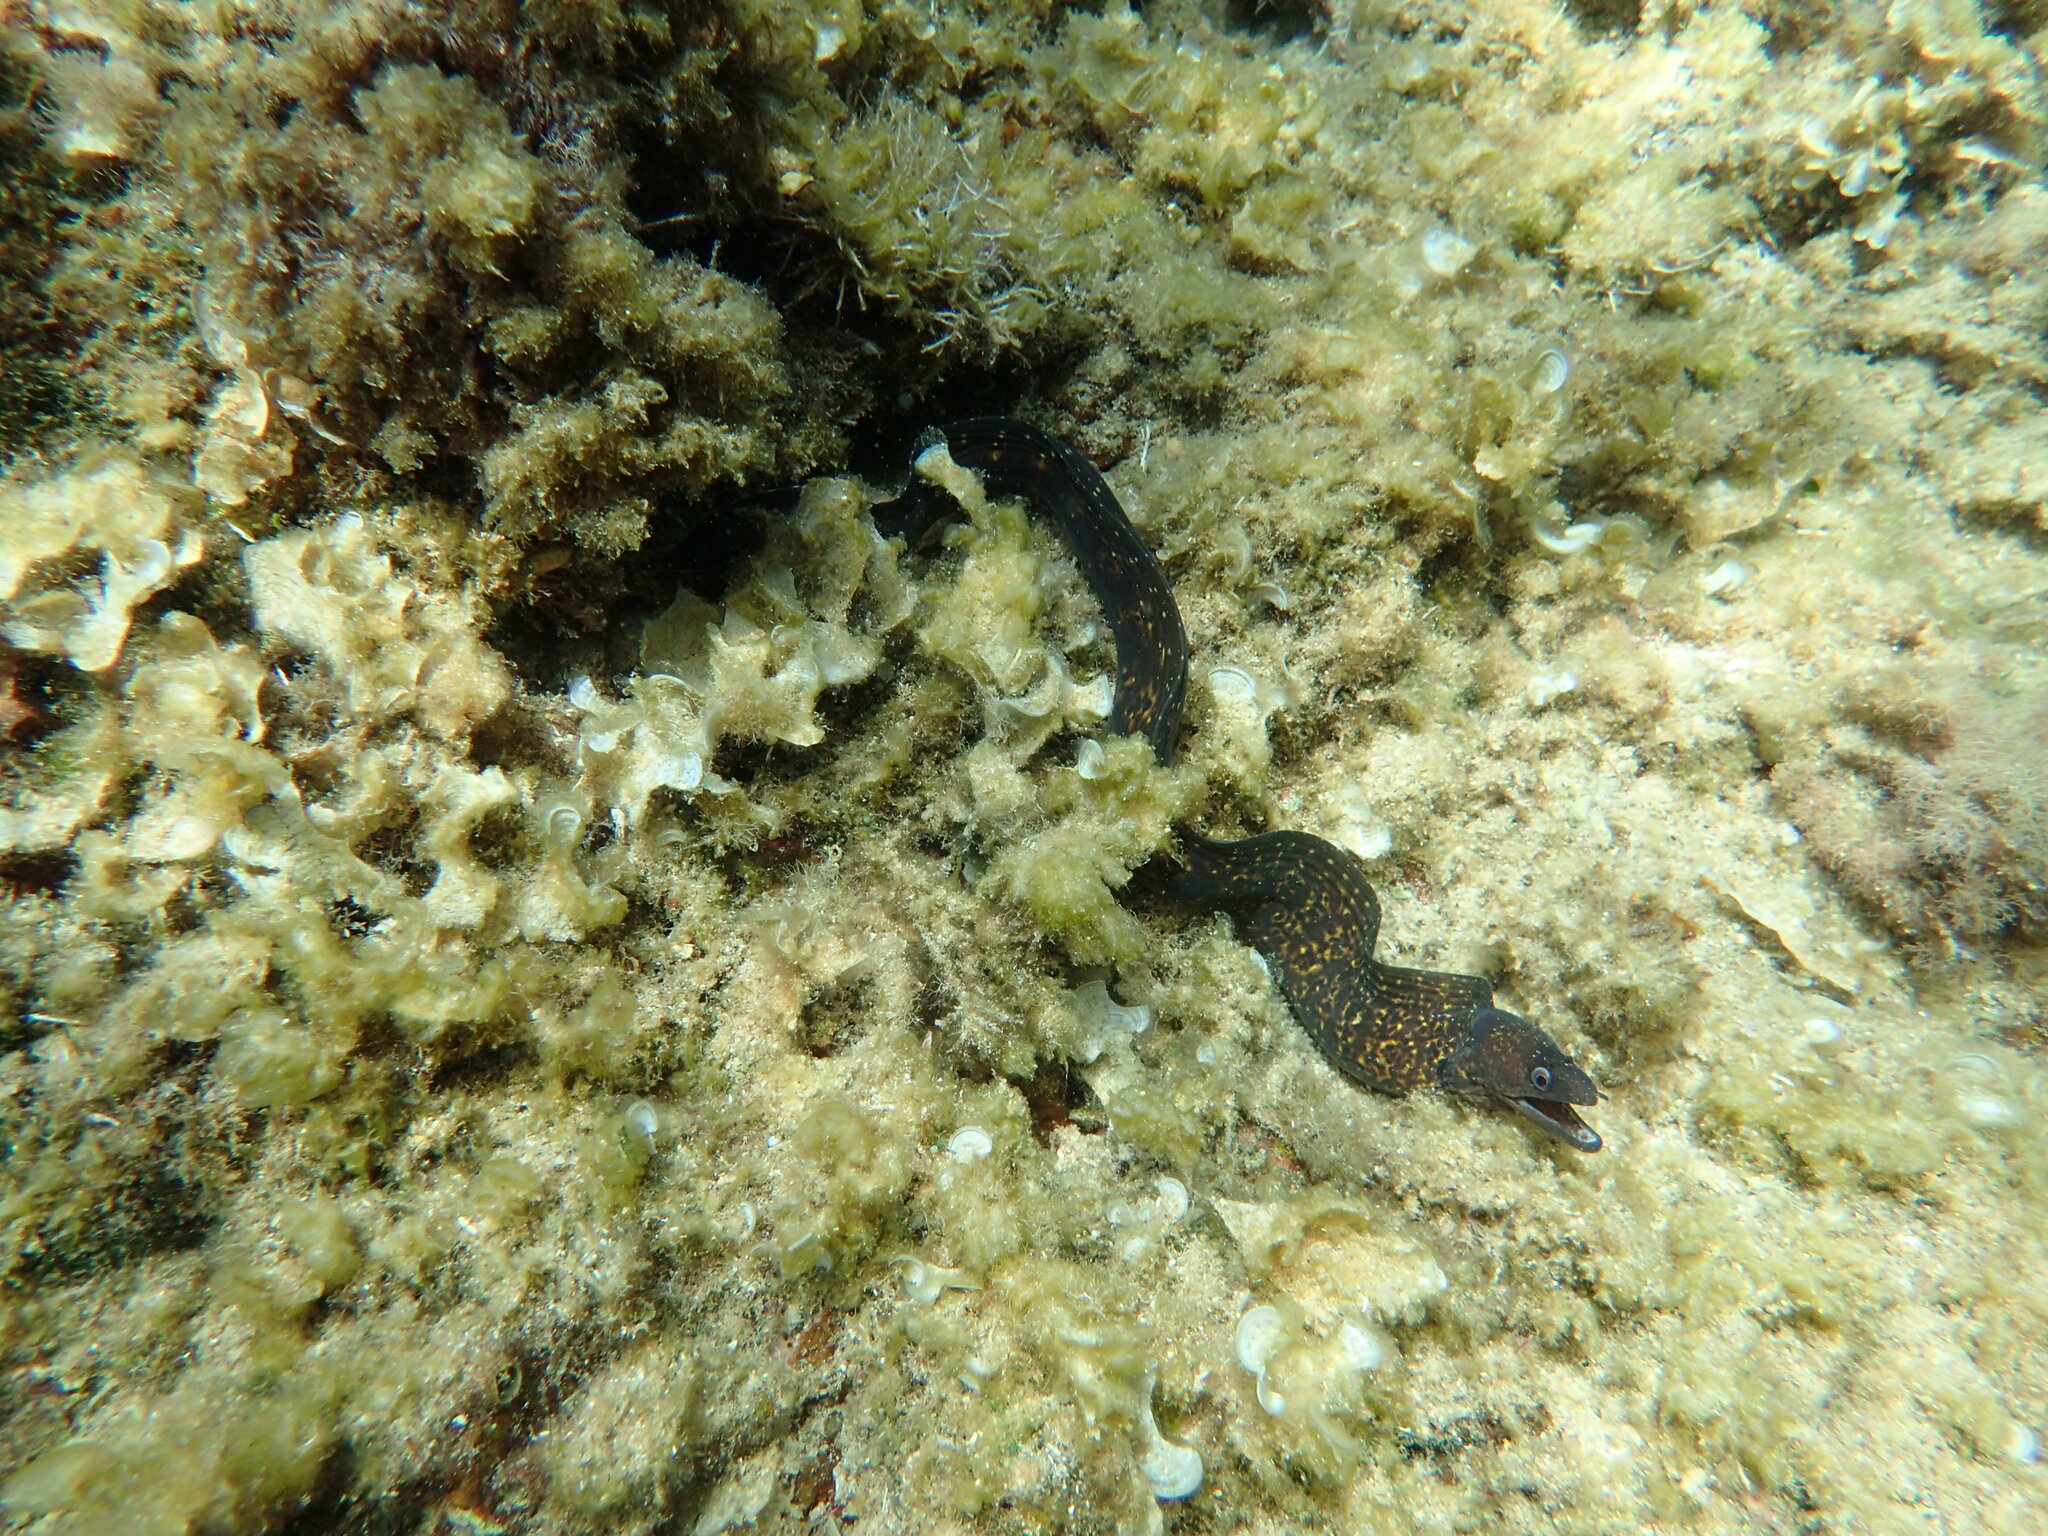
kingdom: Animalia
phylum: Chordata
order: Anguilliformes
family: Muraenidae
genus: Muraena
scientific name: Muraena helena
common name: Mediterranean moray
